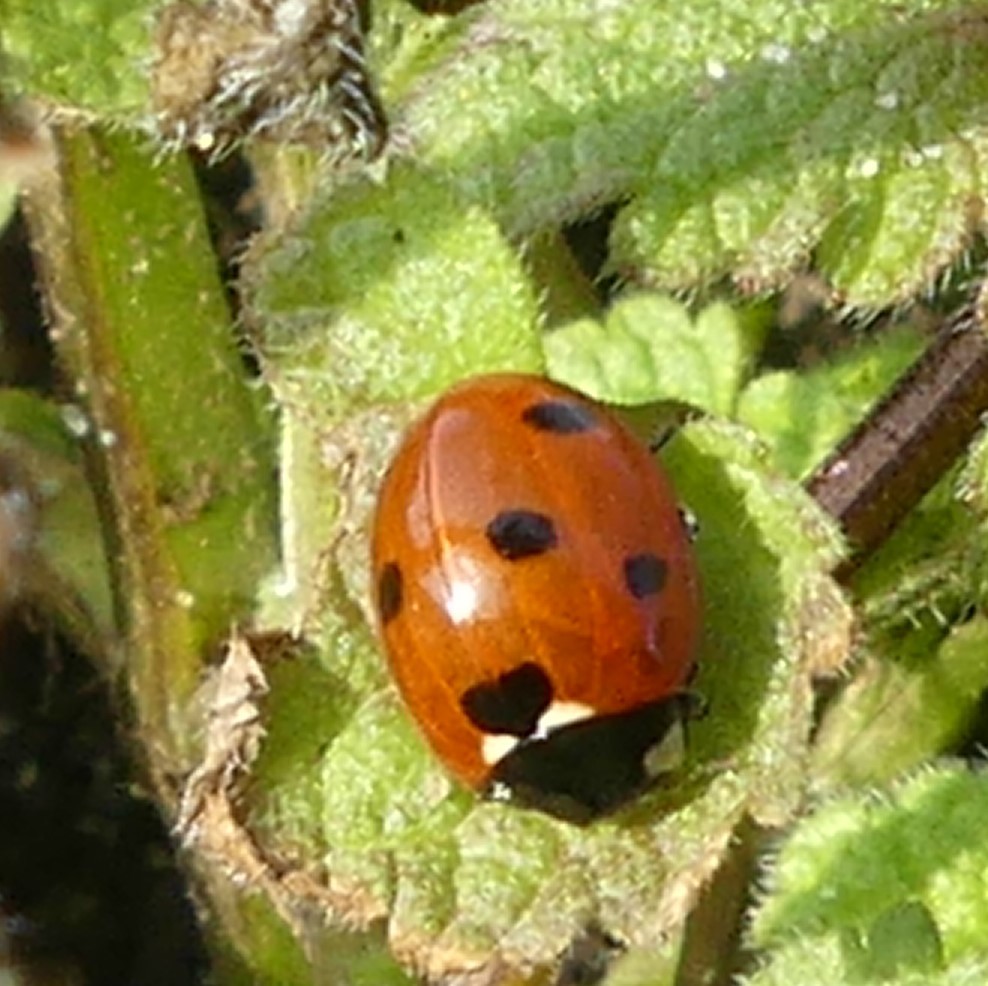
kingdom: Animalia
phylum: Arthropoda
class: Insecta
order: Coleoptera
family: Coccinellidae
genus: Coccinella
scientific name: Coccinella septempunctata
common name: Sevenspotted lady beetle
